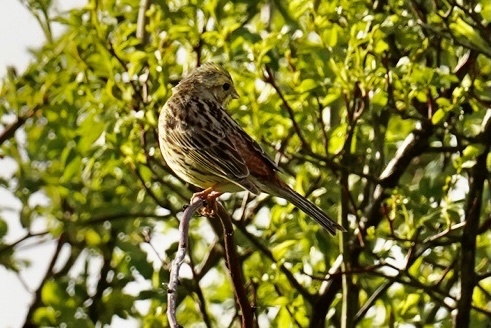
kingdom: Animalia
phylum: Chordata
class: Aves
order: Passeriformes
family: Emberizidae
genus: Emberiza
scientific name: Emberiza citrinella
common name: Yellowhammer
